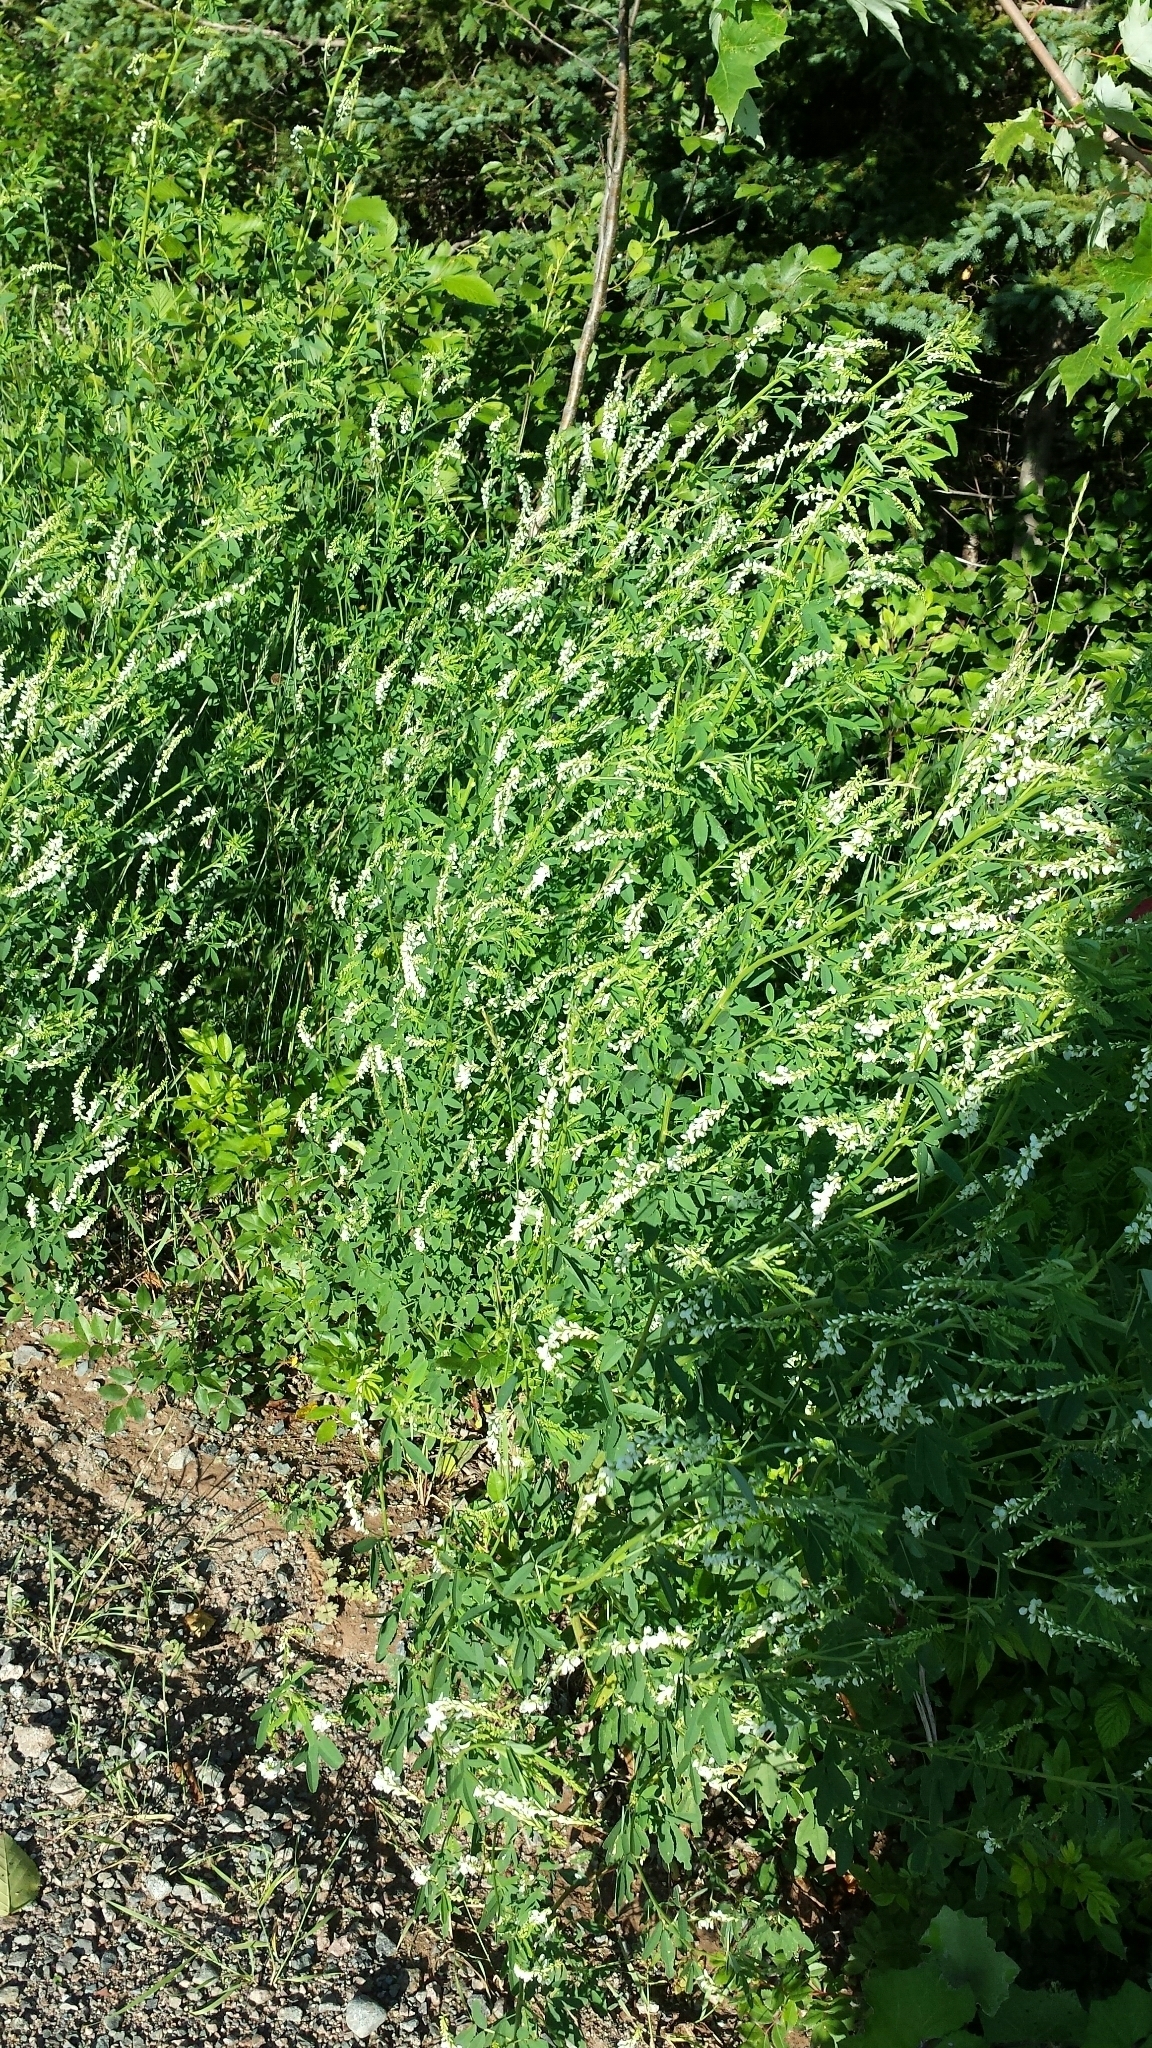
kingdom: Plantae
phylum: Tracheophyta
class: Magnoliopsida
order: Fabales
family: Fabaceae
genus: Melilotus
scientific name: Melilotus albus
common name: White melilot
